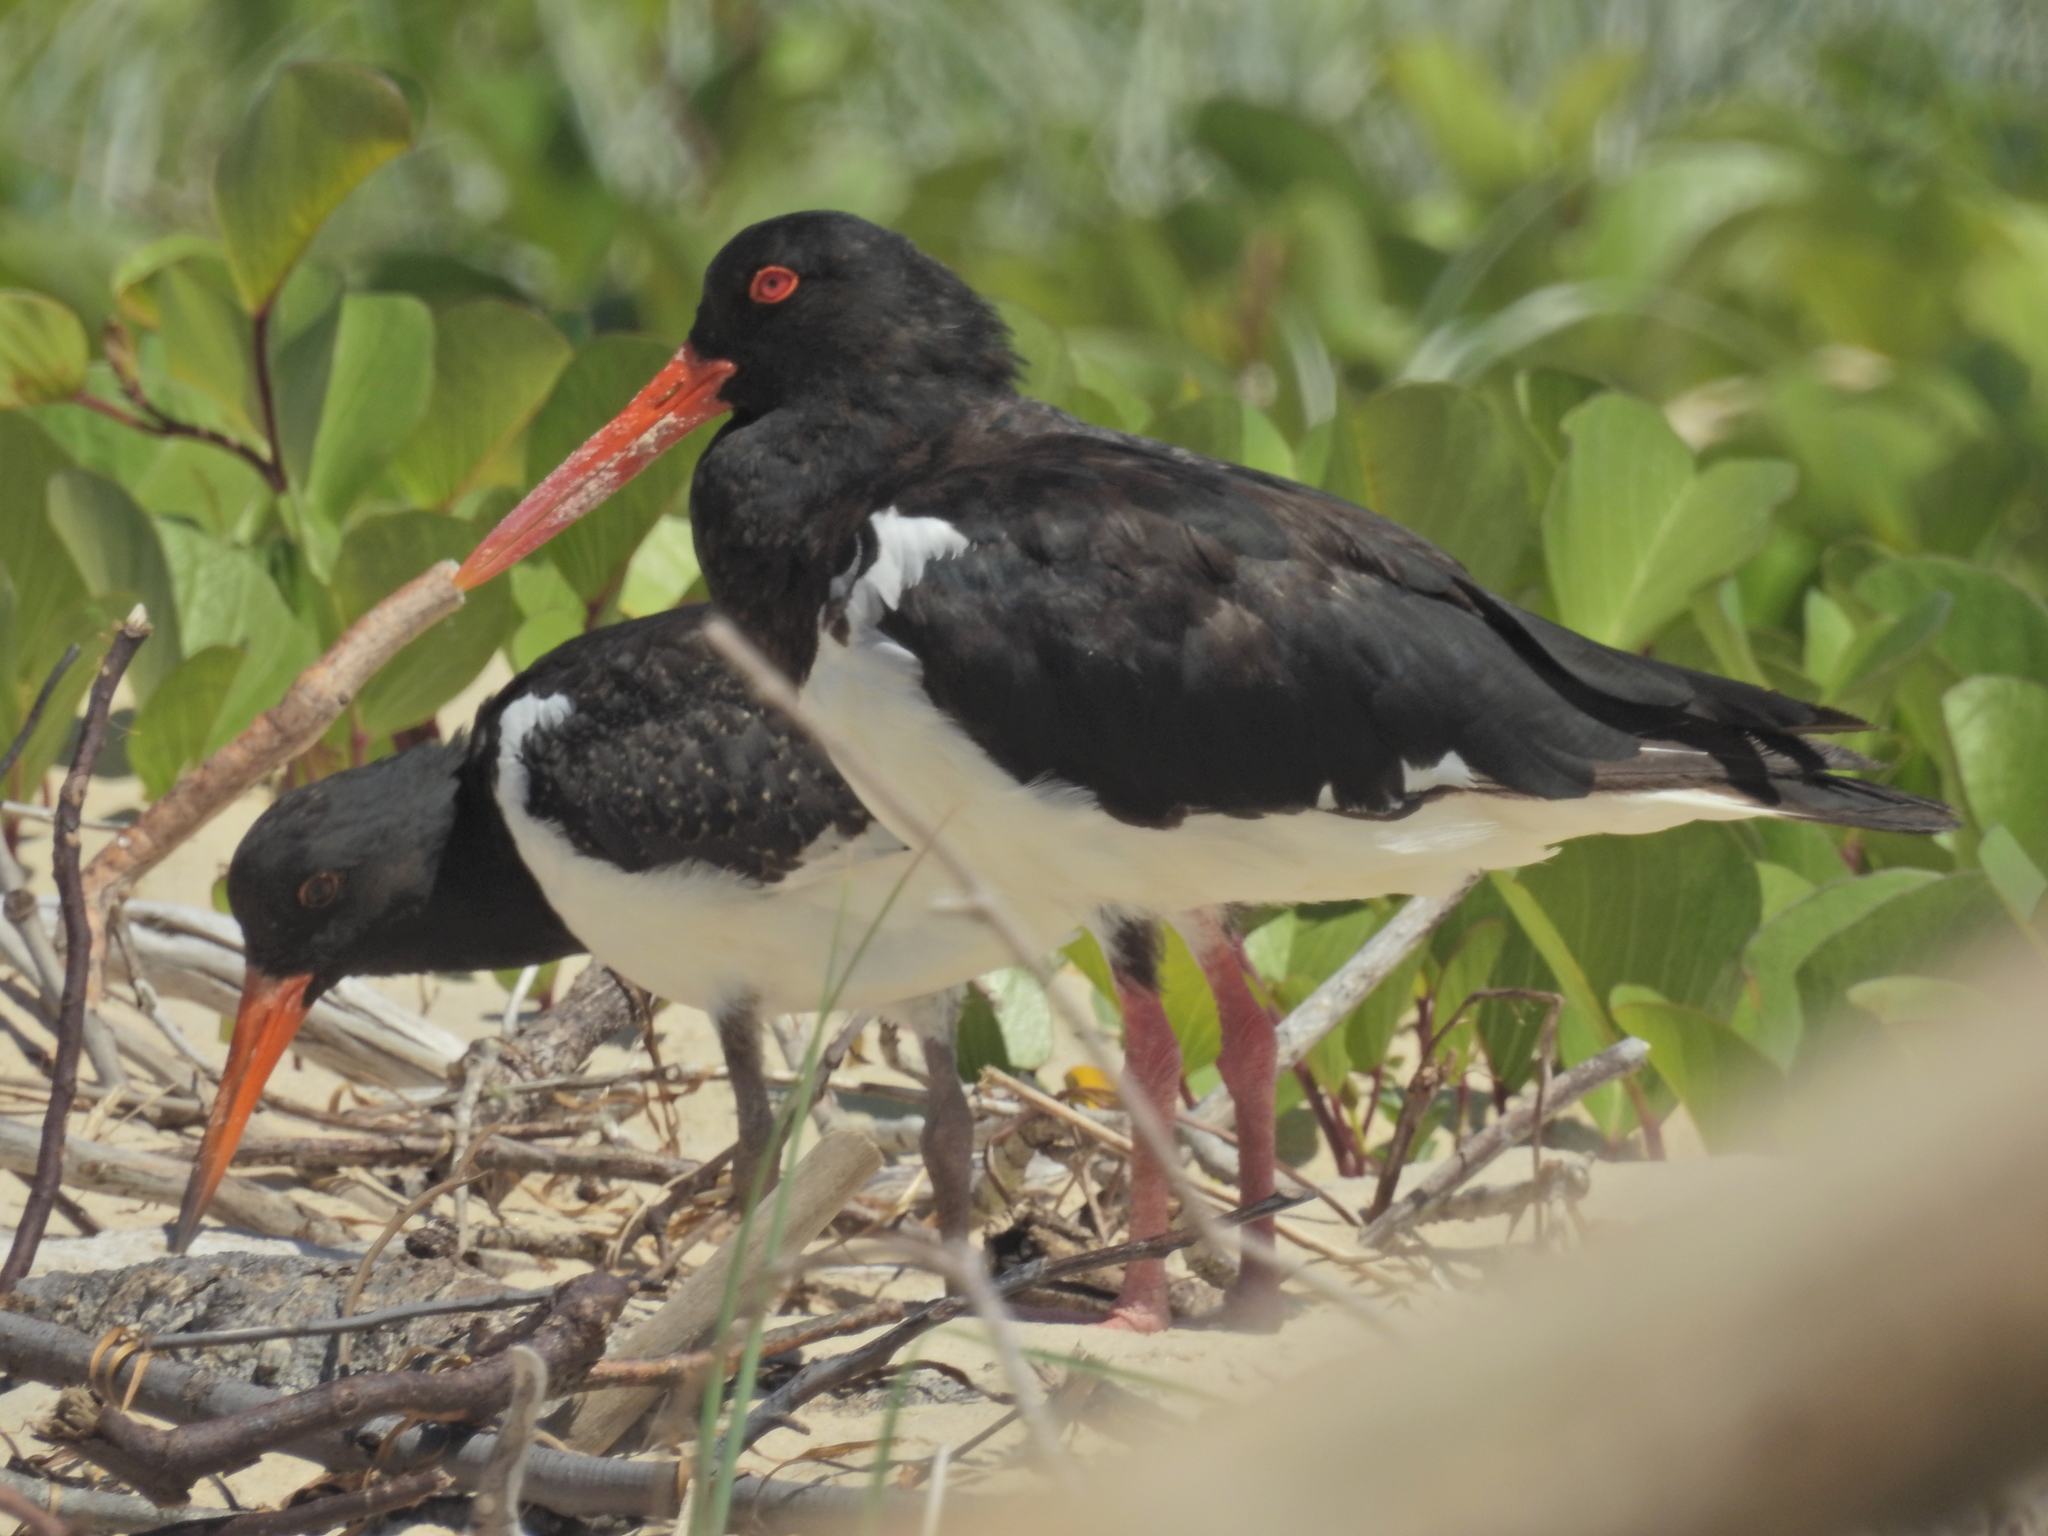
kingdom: Animalia
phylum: Chordata
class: Aves
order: Charadriiformes
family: Haematopodidae
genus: Haematopus
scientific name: Haematopus longirostris
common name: Pied oystercatcher
